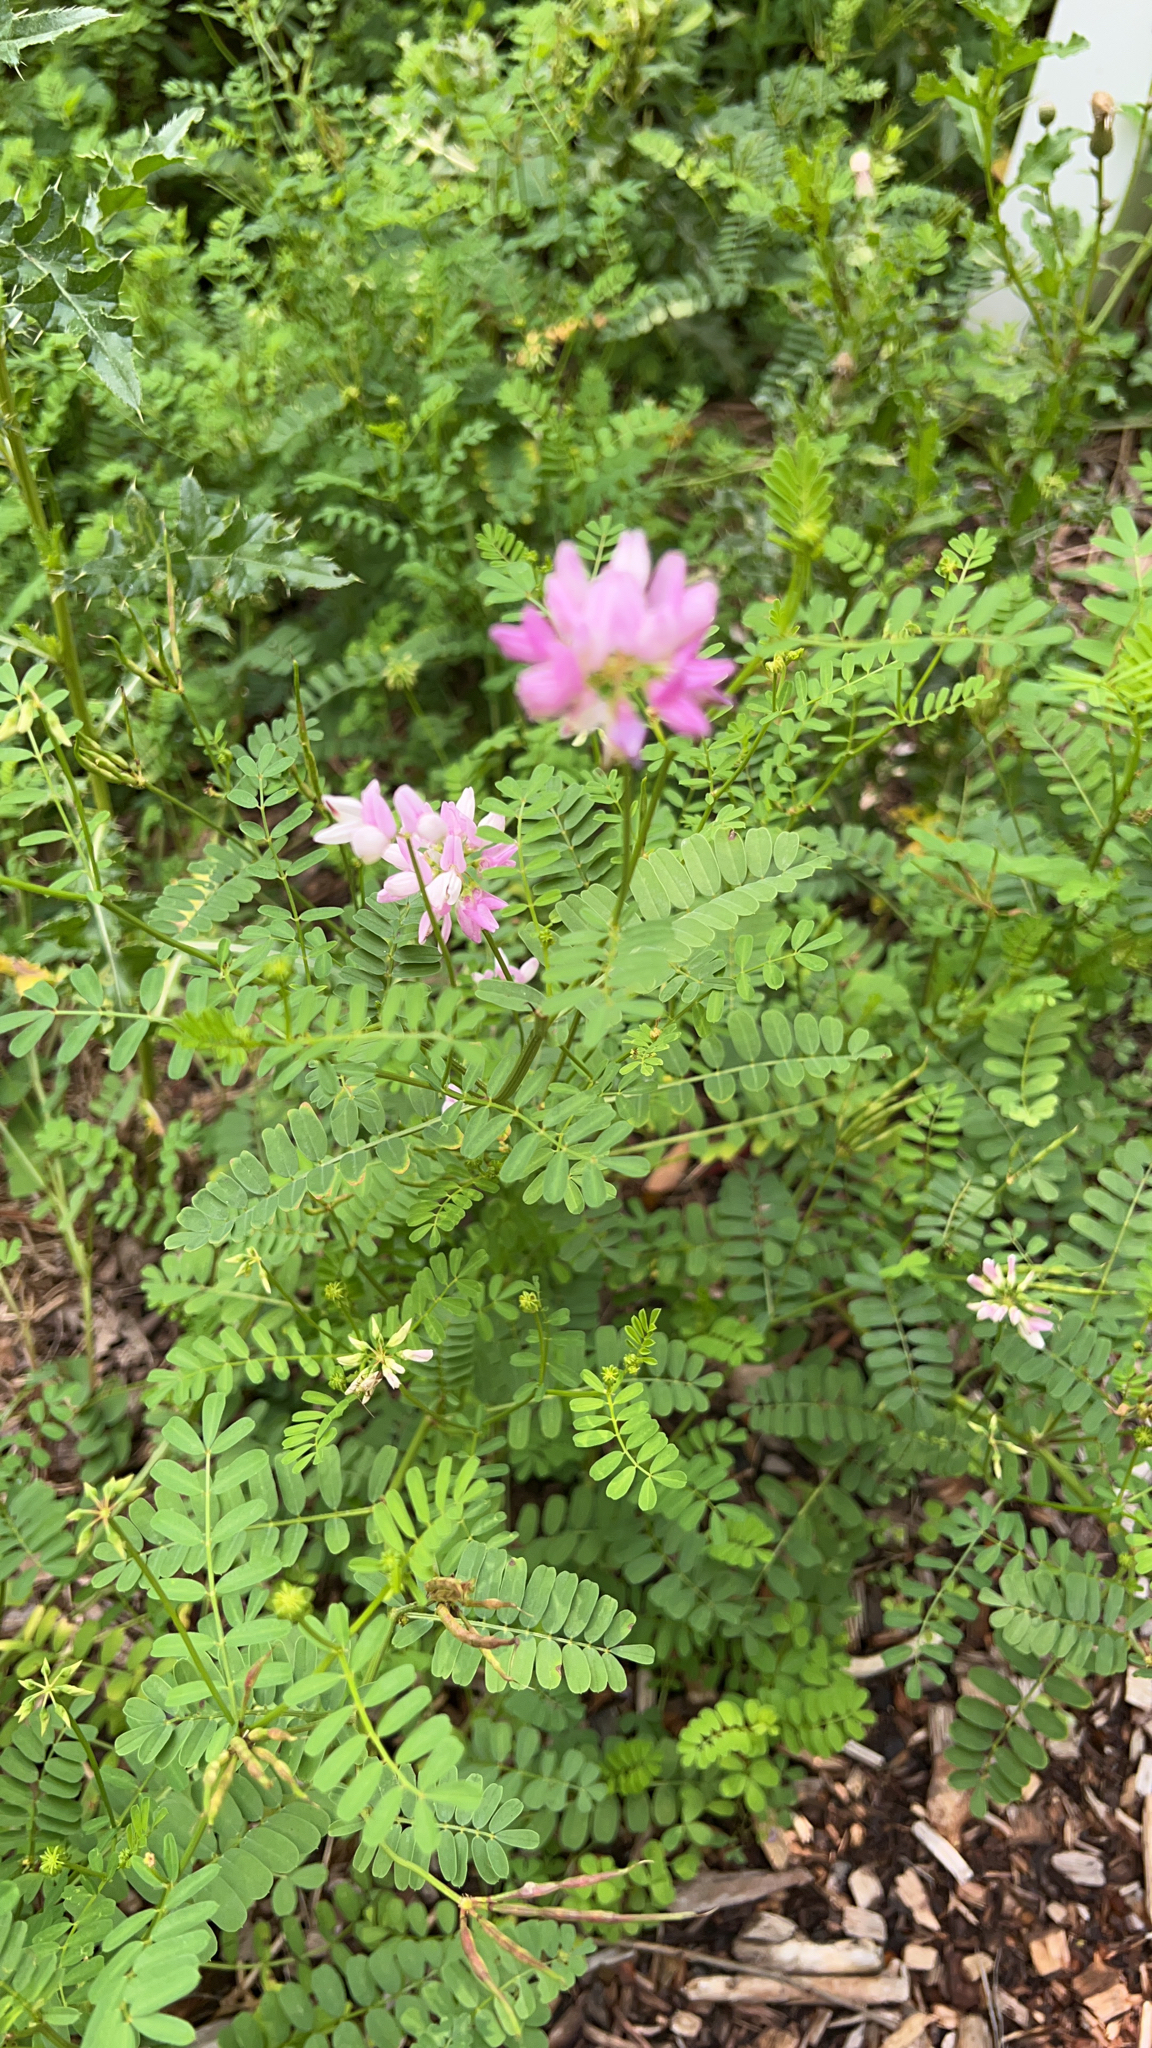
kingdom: Plantae
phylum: Tracheophyta
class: Magnoliopsida
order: Fabales
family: Fabaceae
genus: Coronilla
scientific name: Coronilla varia
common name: Crownvetch
